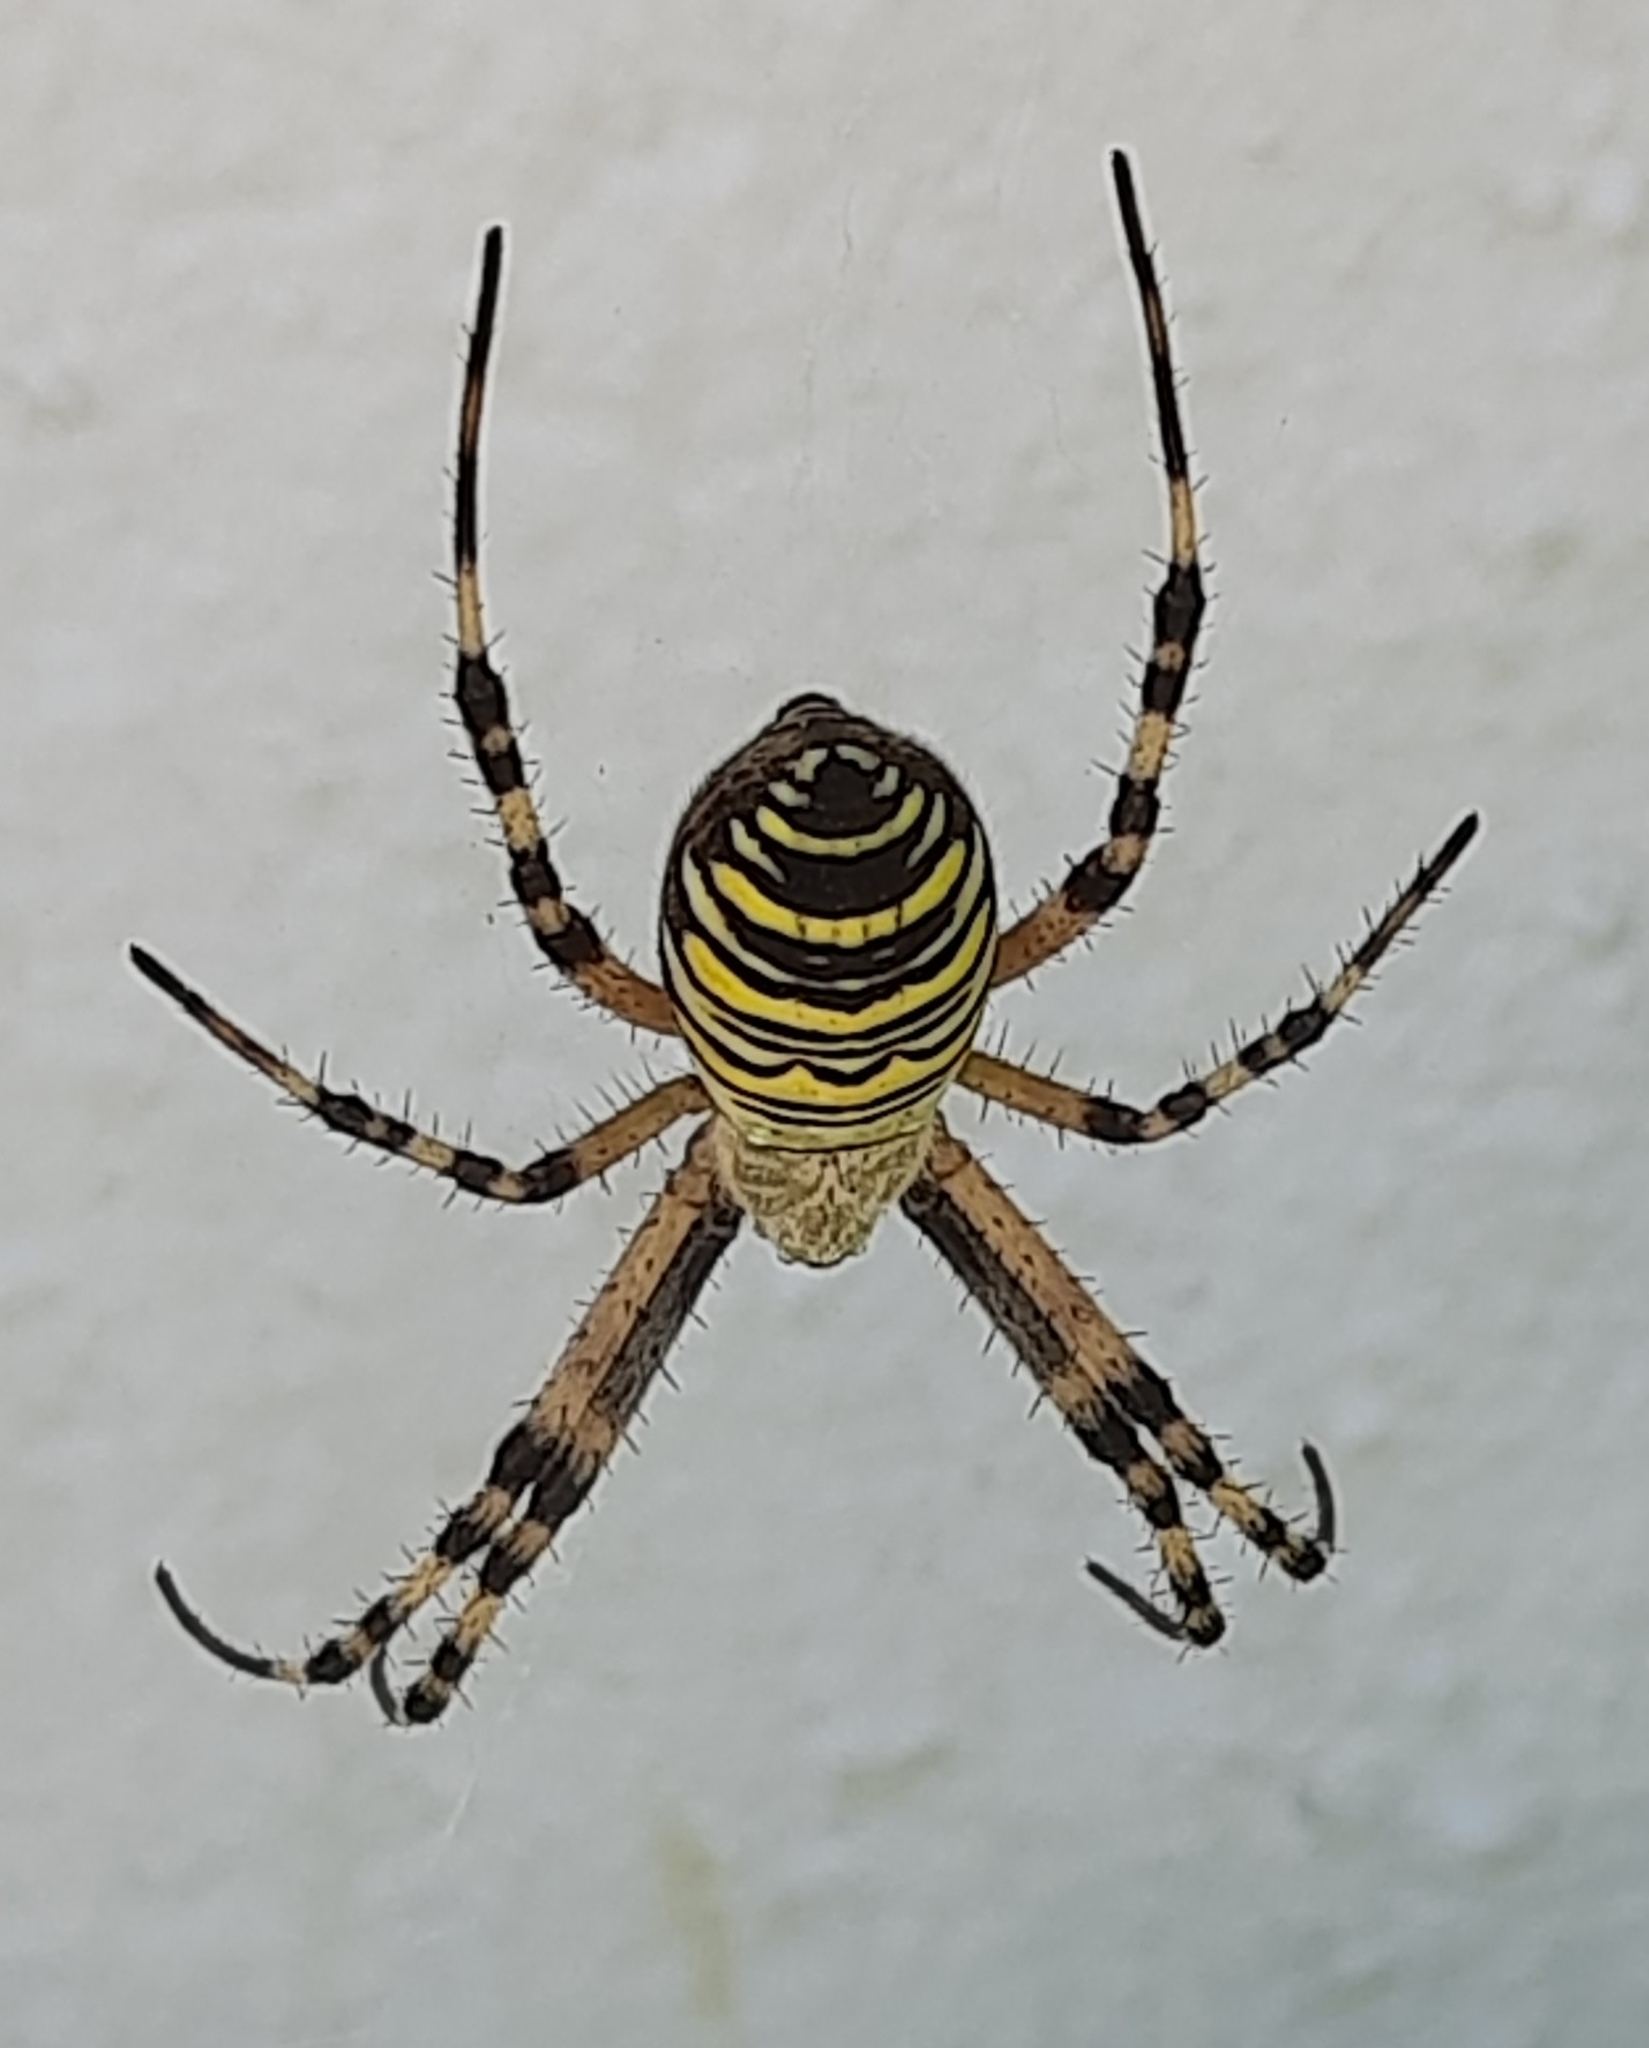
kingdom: Animalia
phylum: Arthropoda
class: Arachnida
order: Araneae
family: Araneidae
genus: Argiope
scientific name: Argiope bruennichi
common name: Wasp spider
